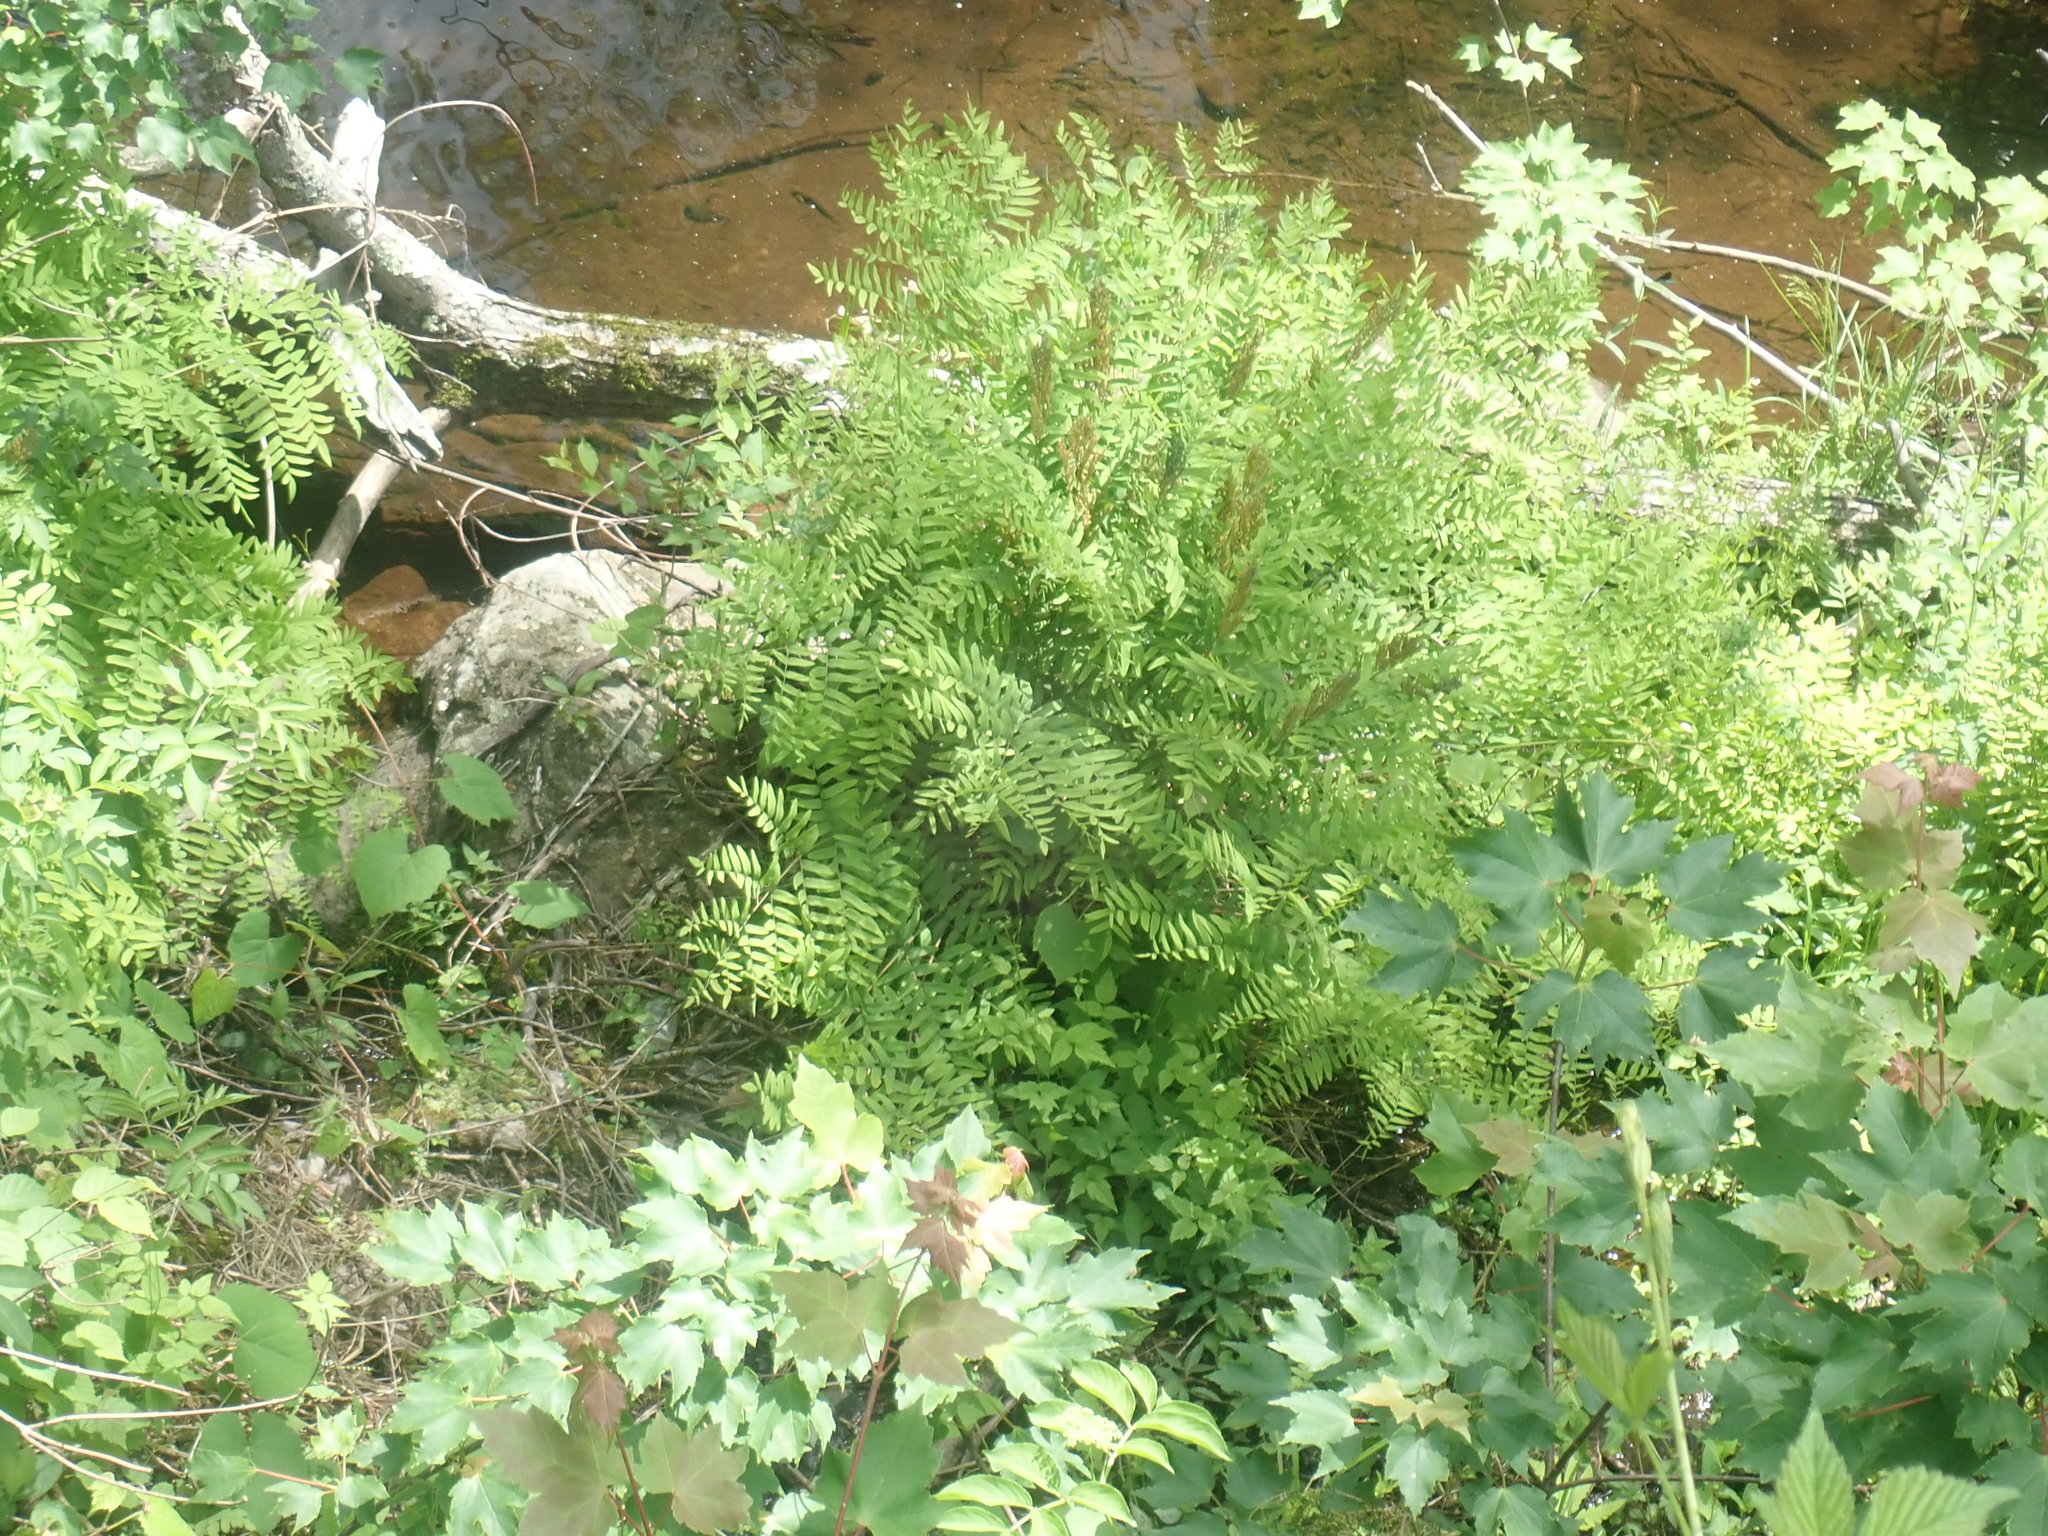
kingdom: Plantae
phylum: Tracheophyta
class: Polypodiopsida
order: Osmundales
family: Osmundaceae
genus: Osmunda
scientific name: Osmunda spectabilis
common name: American royal fern
